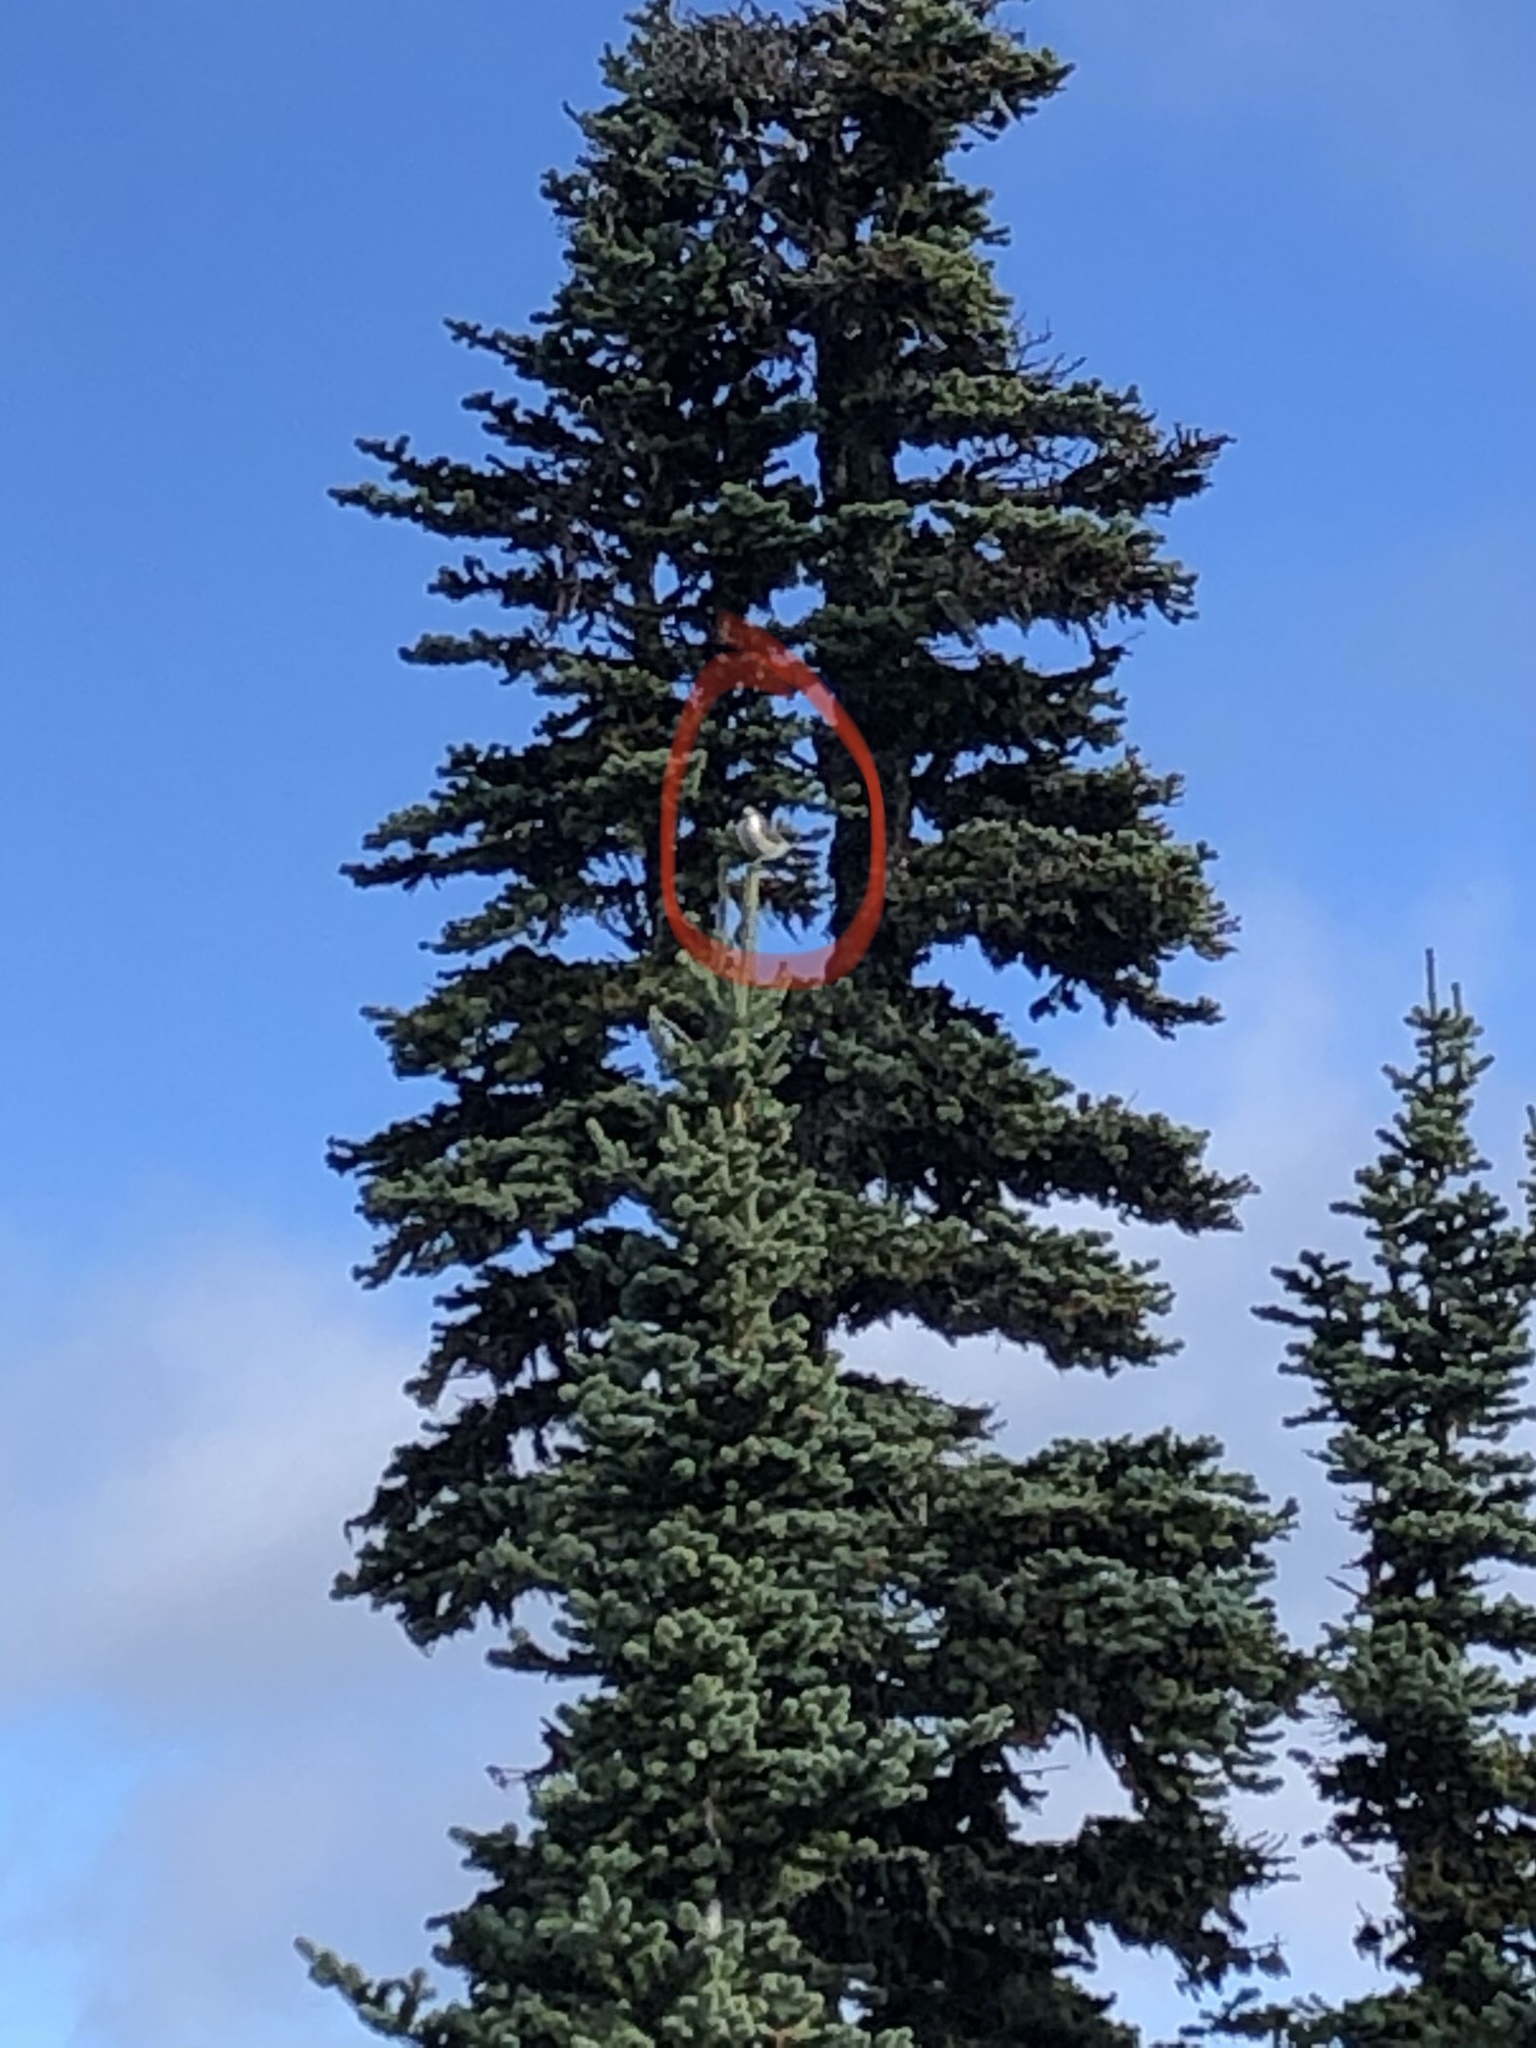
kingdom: Animalia
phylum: Chordata
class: Aves
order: Passeriformes
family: Corvidae
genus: Perisoreus
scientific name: Perisoreus canadensis
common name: Gray jay
